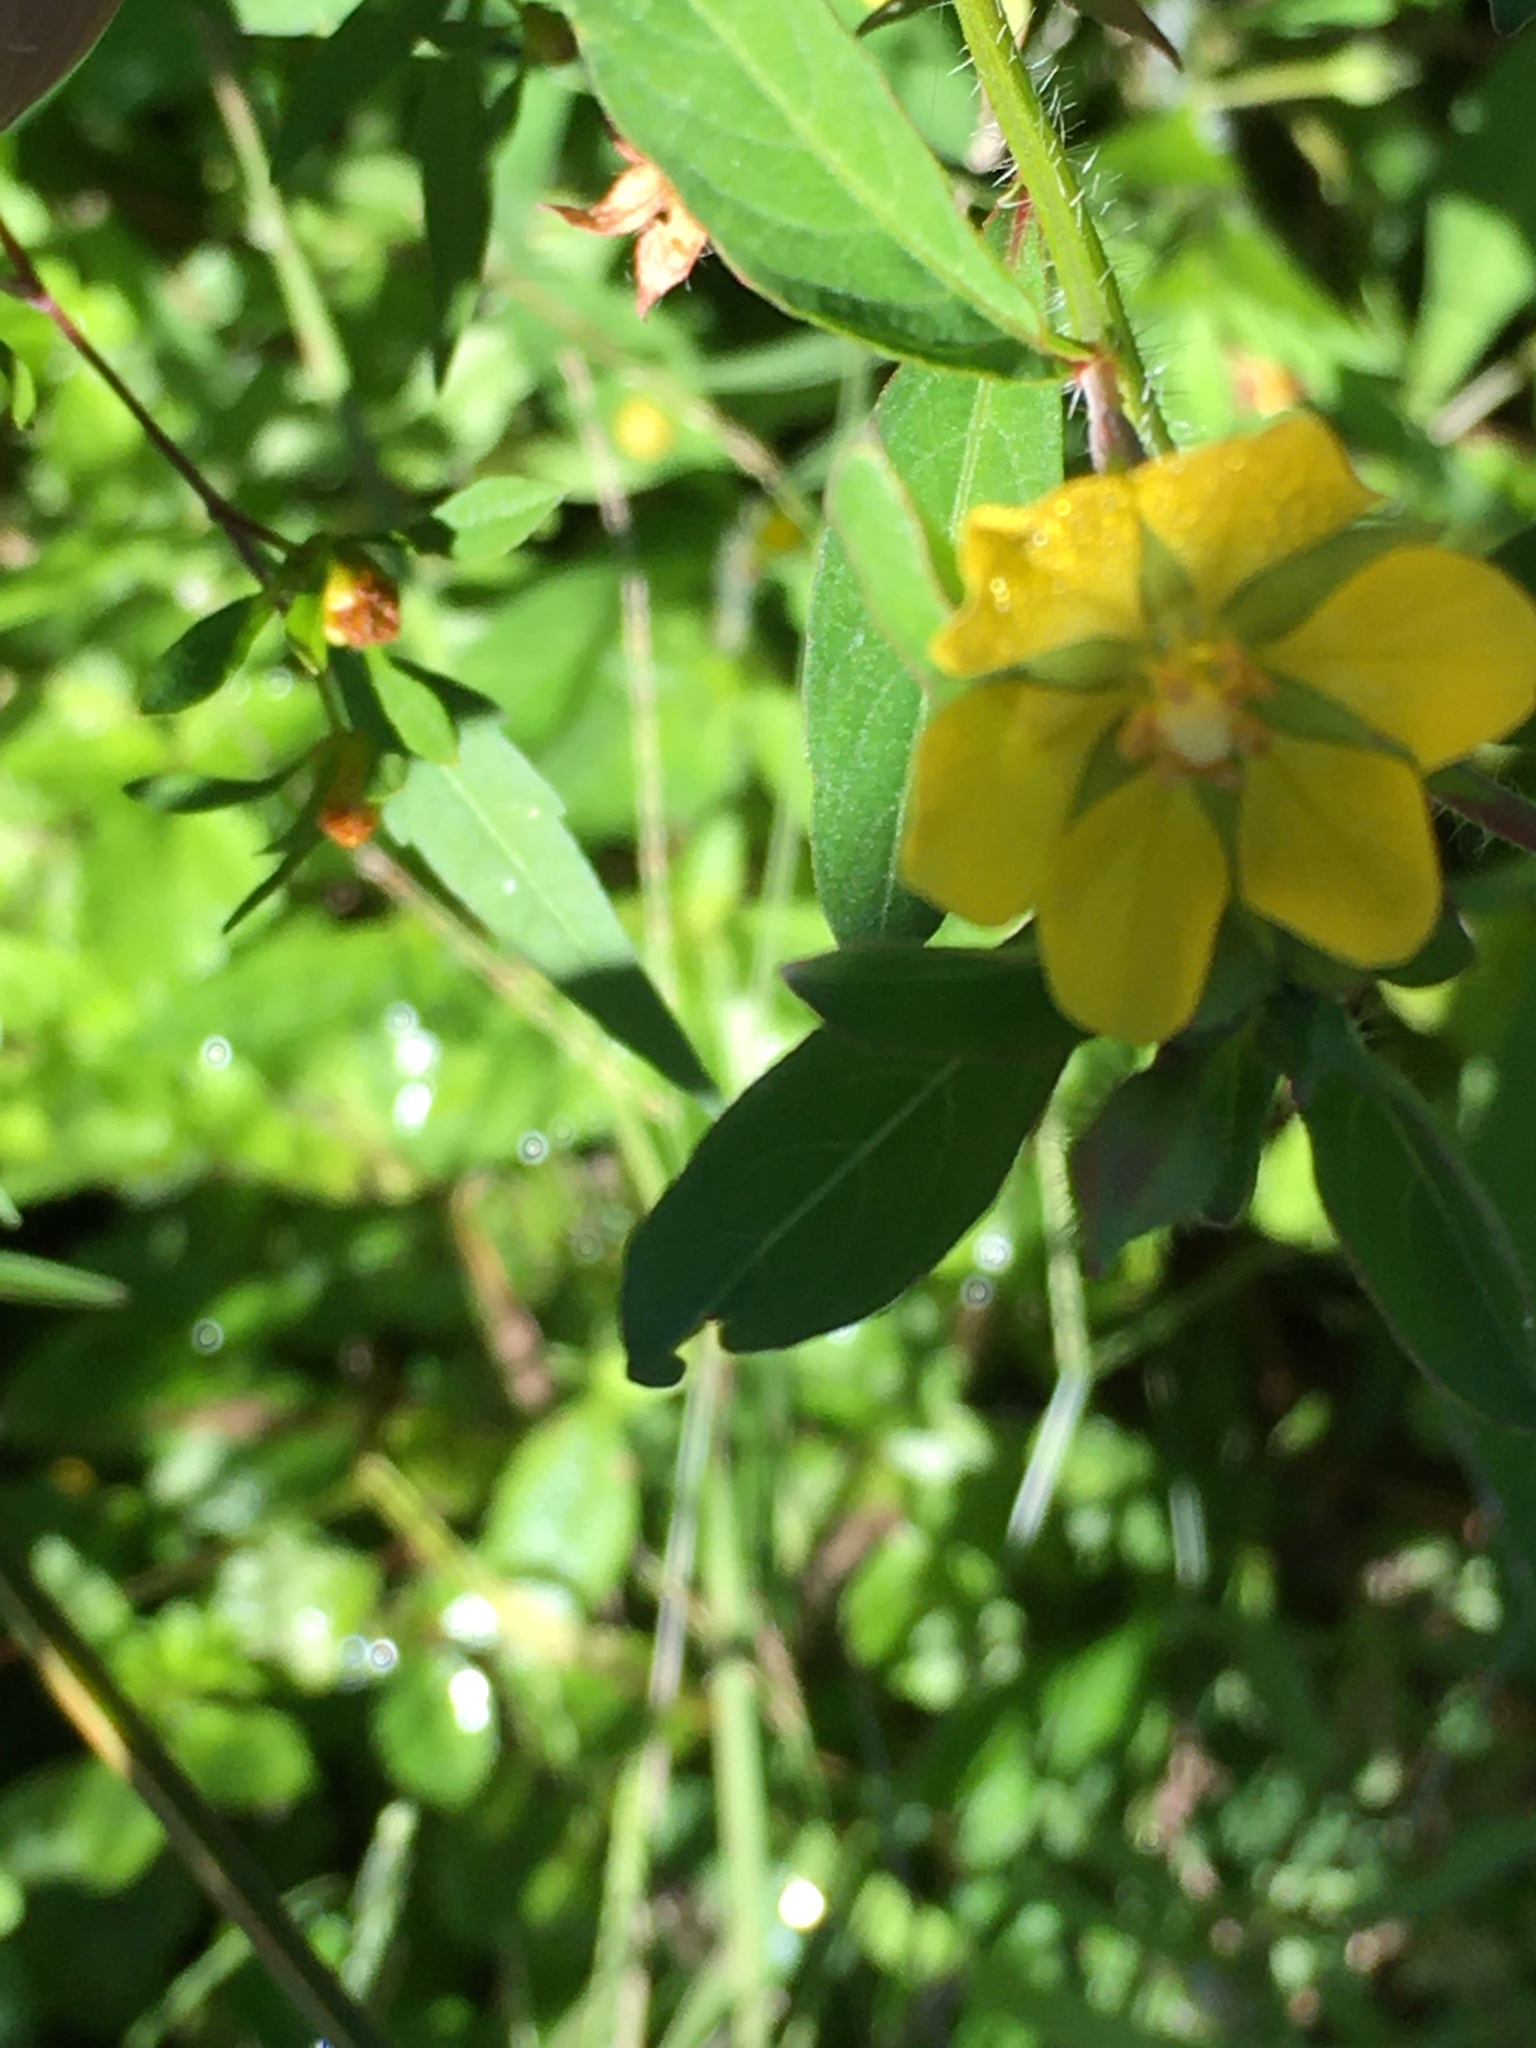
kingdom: Plantae
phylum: Tracheophyta
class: Magnoliopsida
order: Myrtales
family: Onagraceae
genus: Ludwigia
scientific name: Ludwigia leptocarpa
